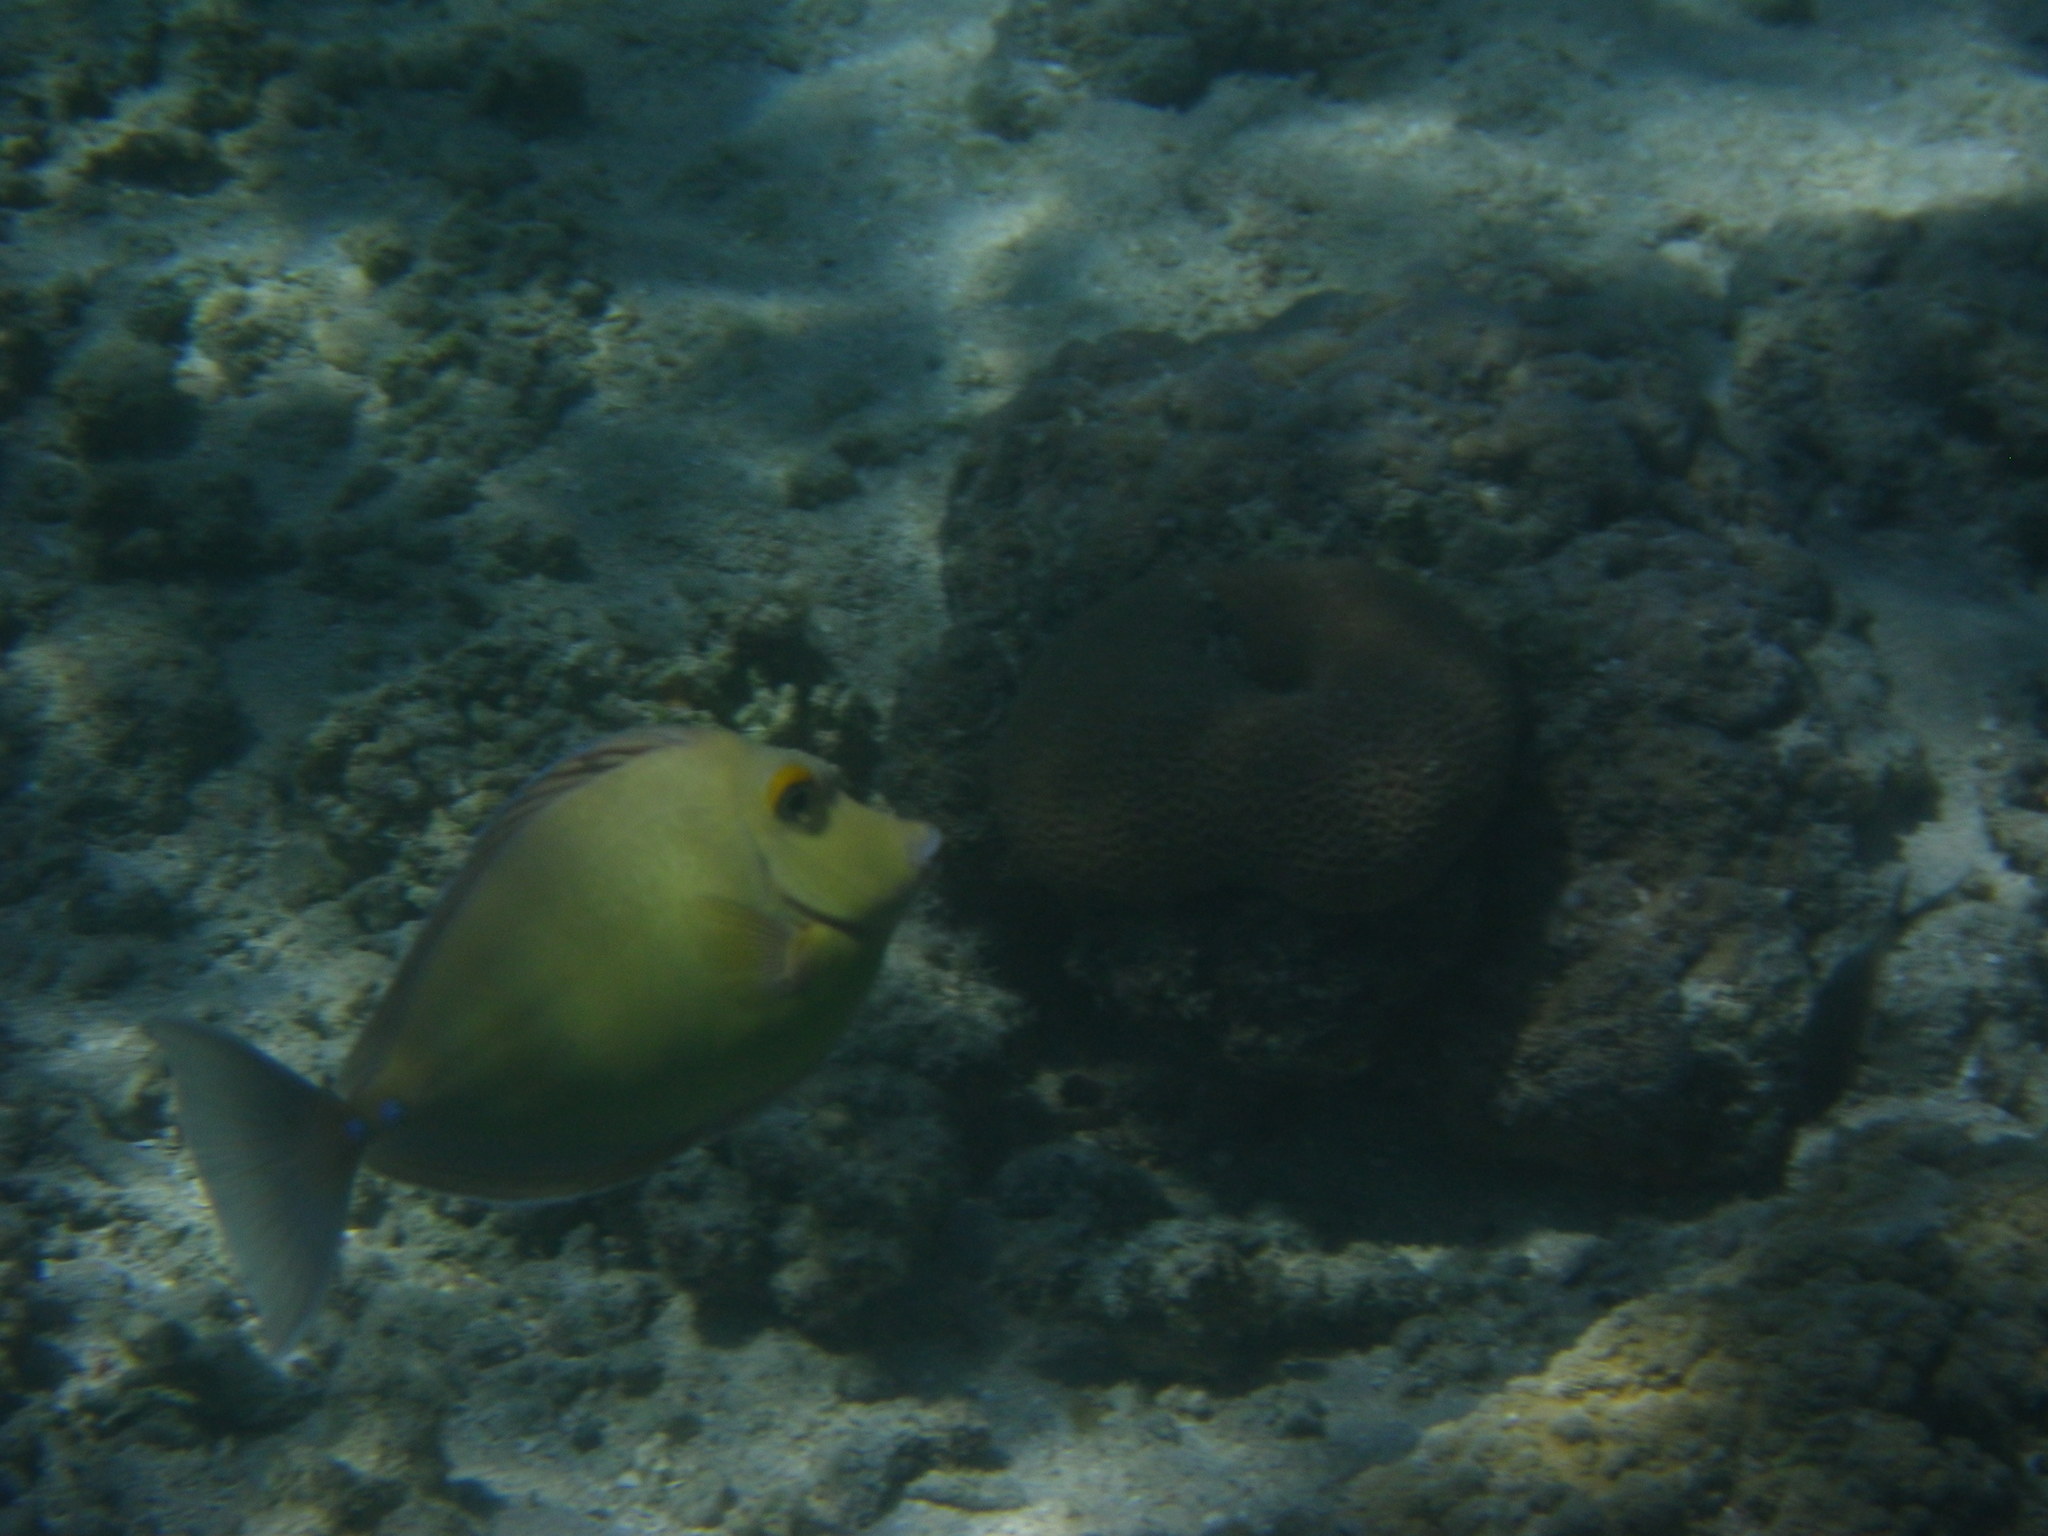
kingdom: Animalia
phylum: Chordata
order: Perciformes
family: Acanthuridae
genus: Naso
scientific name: Naso unicornis
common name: Bluespine unicornfish
